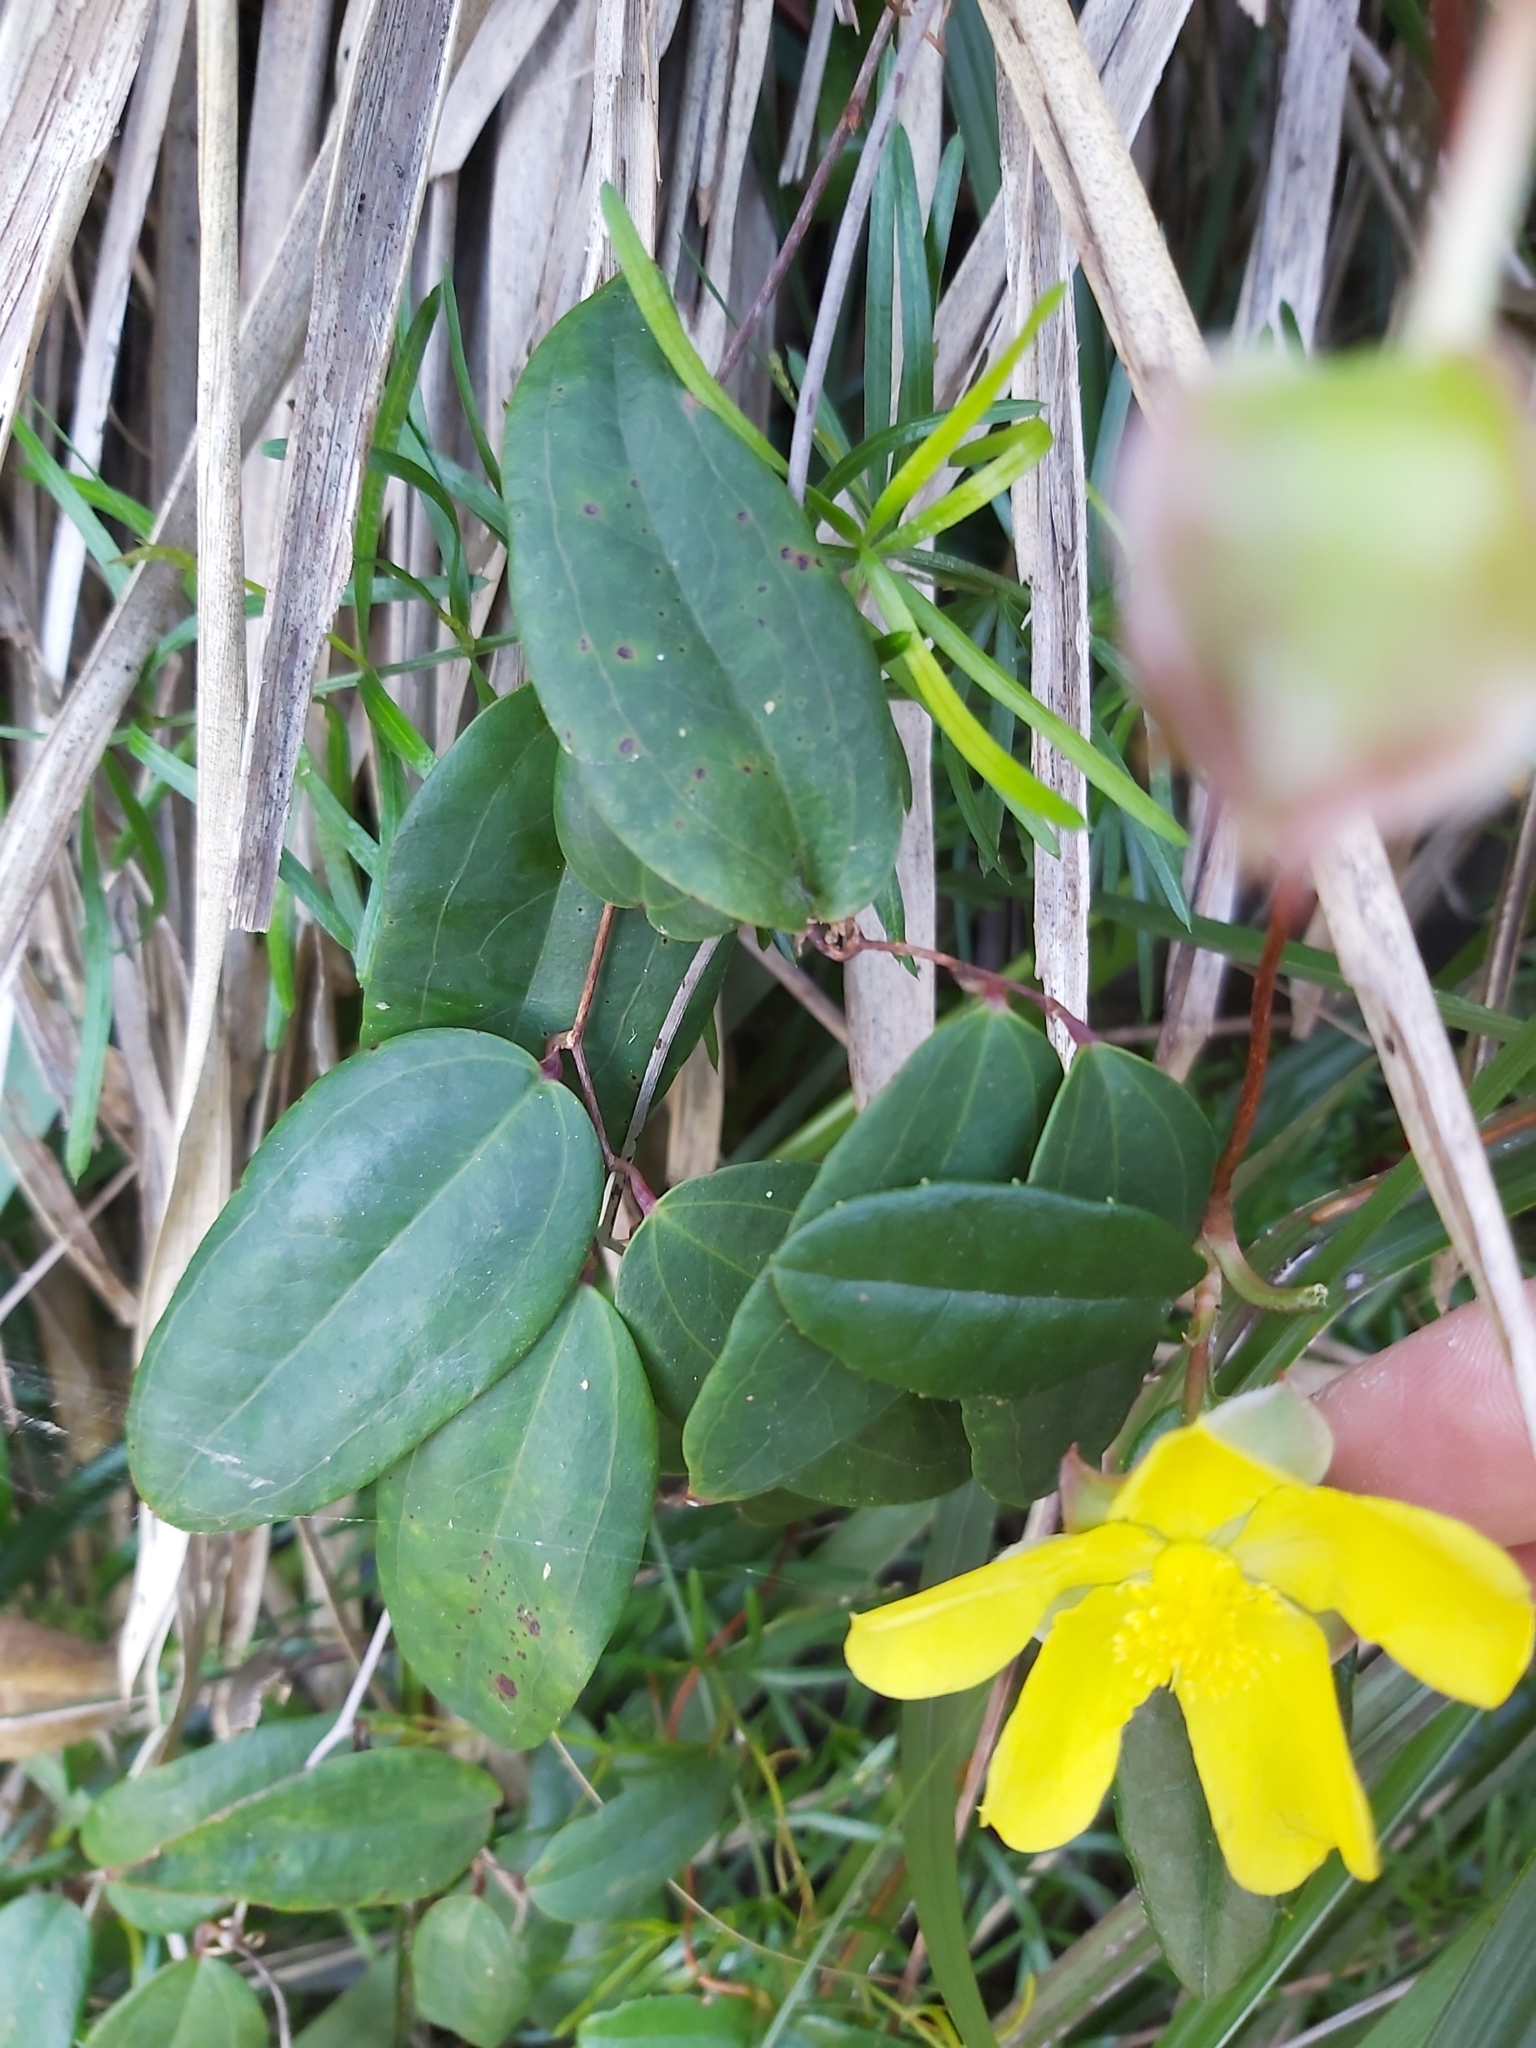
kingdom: Plantae
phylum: Tracheophyta
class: Magnoliopsida
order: Dilleniales
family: Dilleniaceae
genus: Hibbertia
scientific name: Hibbertia dentata
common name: Trailing guinea-flower
